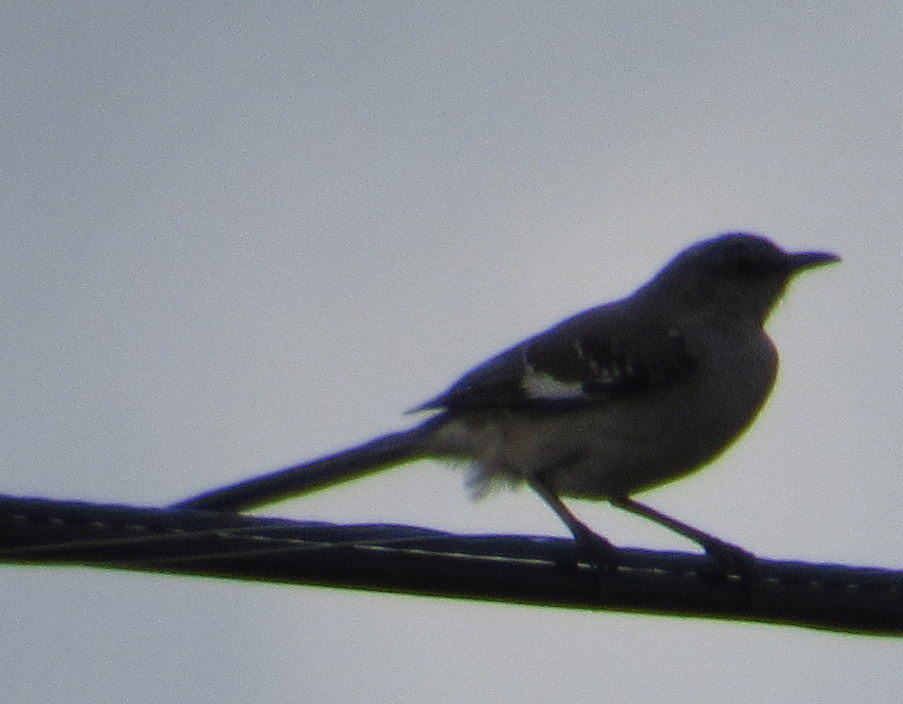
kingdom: Animalia
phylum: Chordata
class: Aves
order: Passeriformes
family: Mimidae
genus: Mimus
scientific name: Mimus polyglottos
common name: Northern mockingbird
